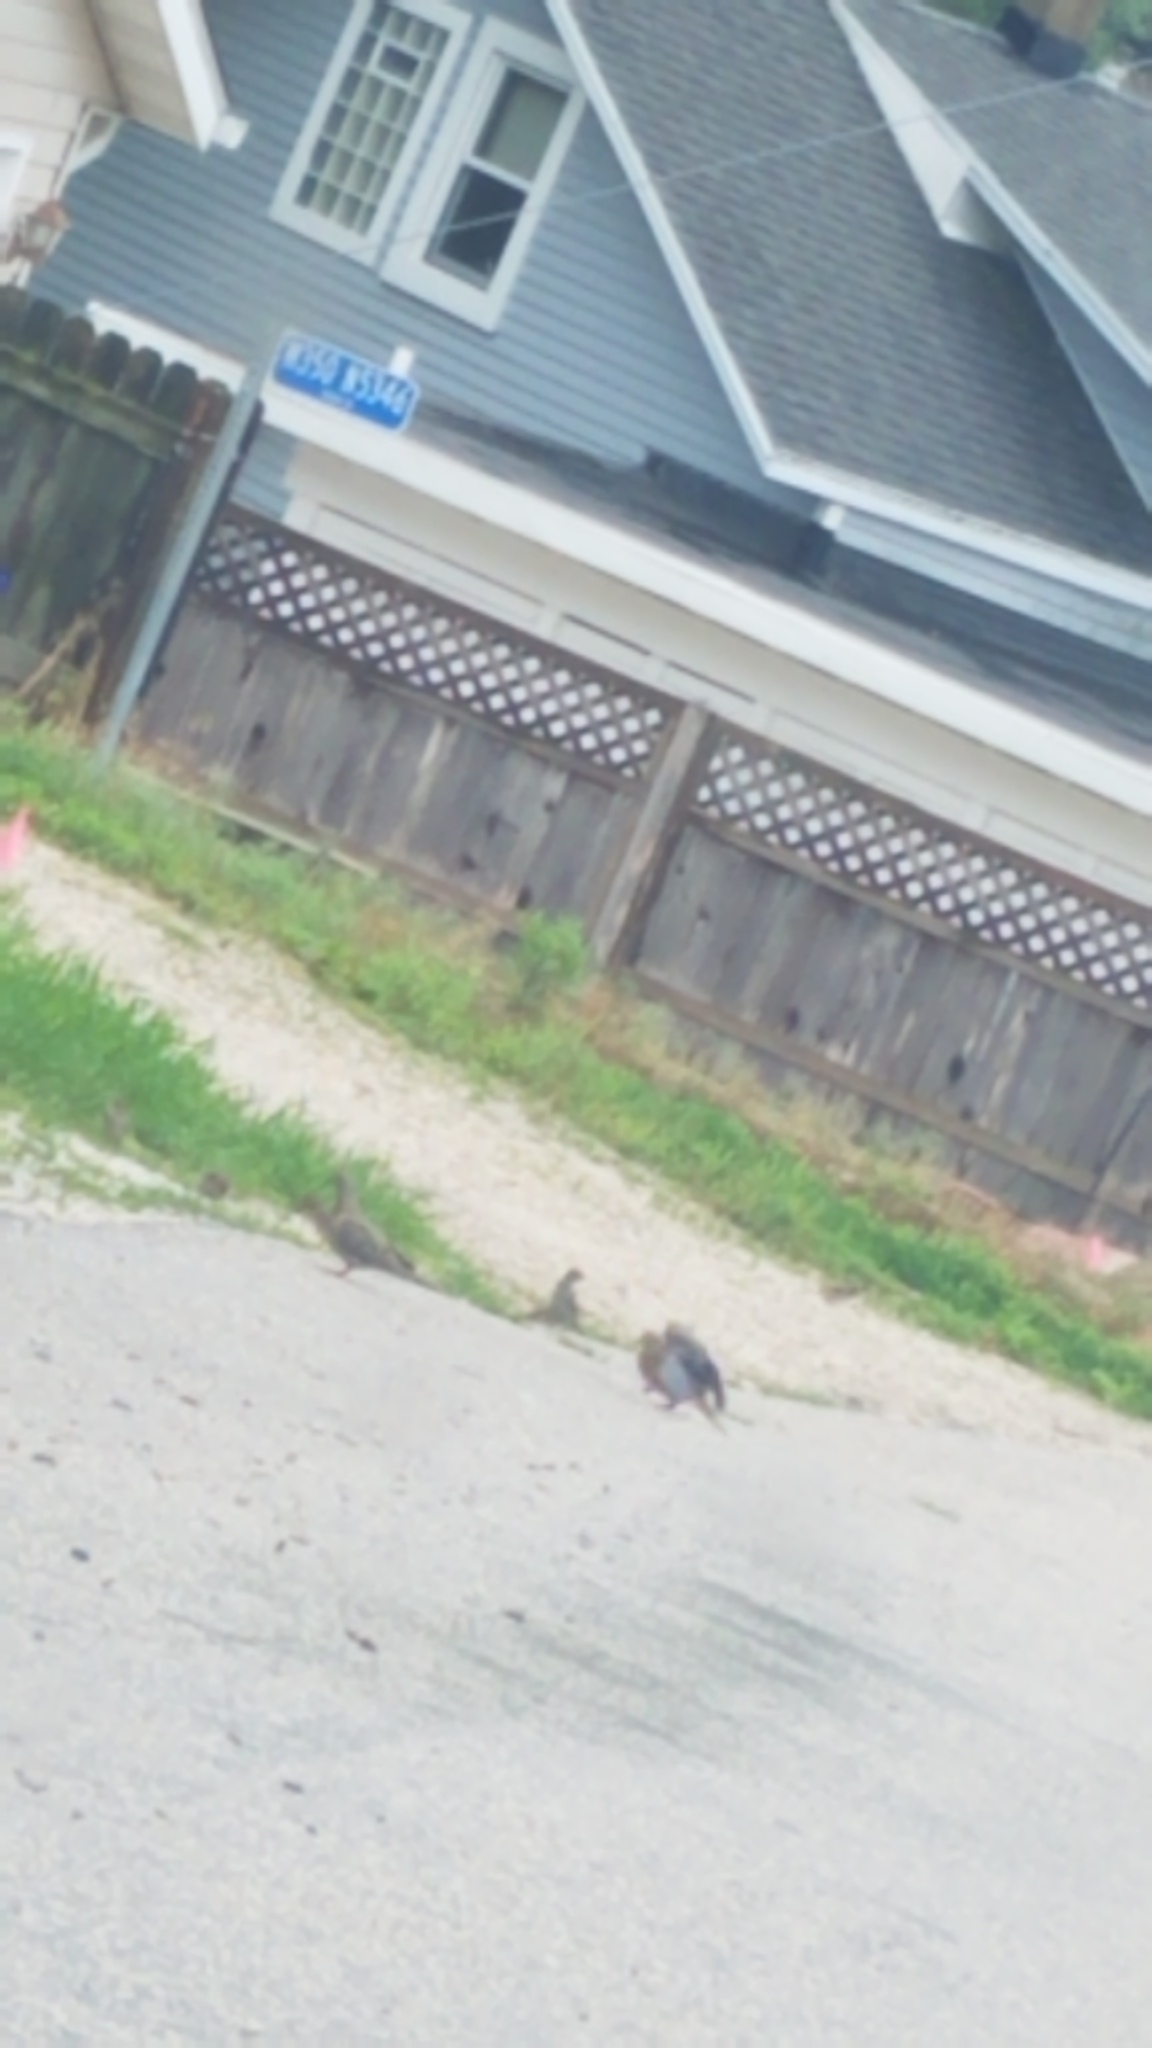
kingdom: Animalia
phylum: Chordata
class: Aves
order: Columbiformes
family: Columbidae
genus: Zenaida
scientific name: Zenaida macroura
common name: Mourning dove
